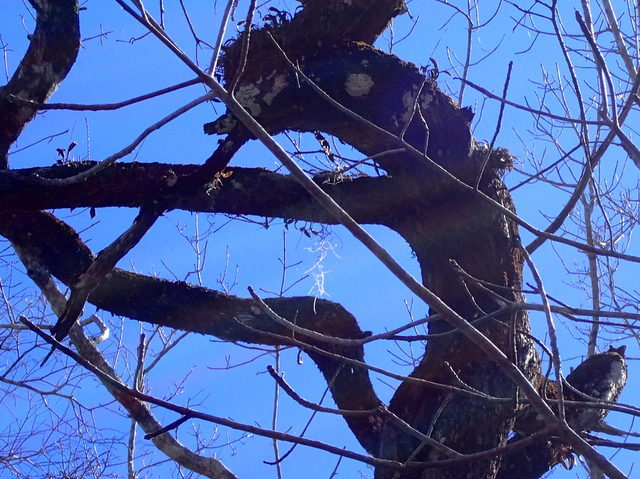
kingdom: Plantae
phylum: Tracheophyta
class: Liliopsida
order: Asparagales
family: Orchidaceae
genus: Epidendrum
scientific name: Epidendrum conopseum
